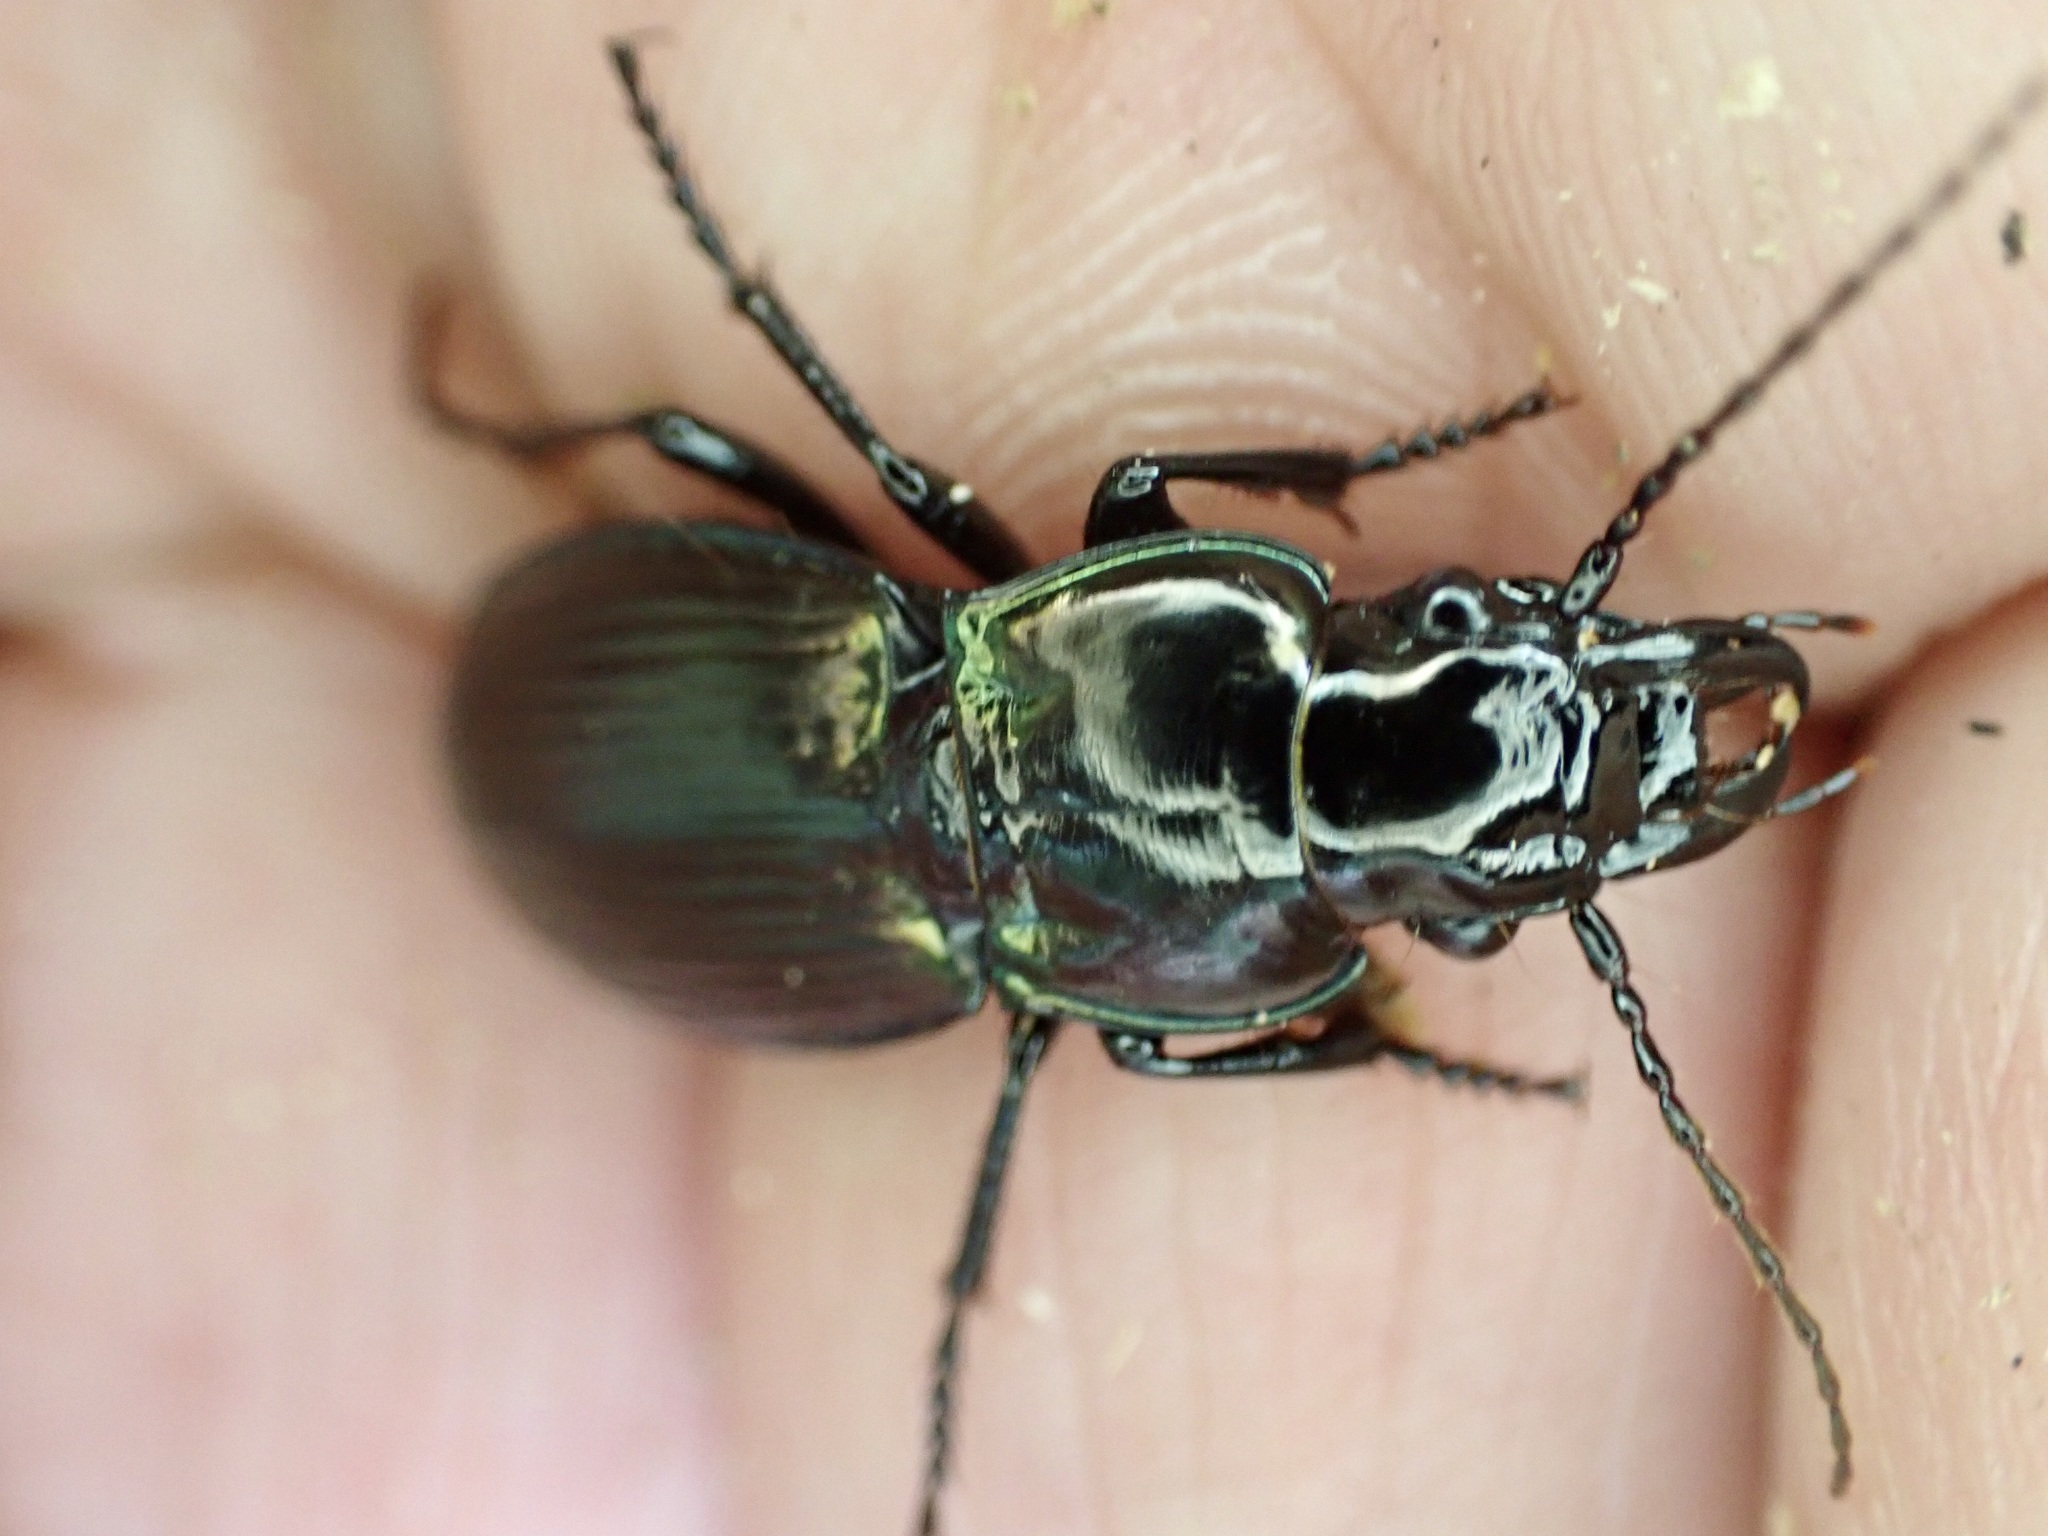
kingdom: Animalia
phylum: Arthropoda
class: Insecta
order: Coleoptera
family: Carabidae
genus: Megadromus
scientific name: Megadromus antarcticus
